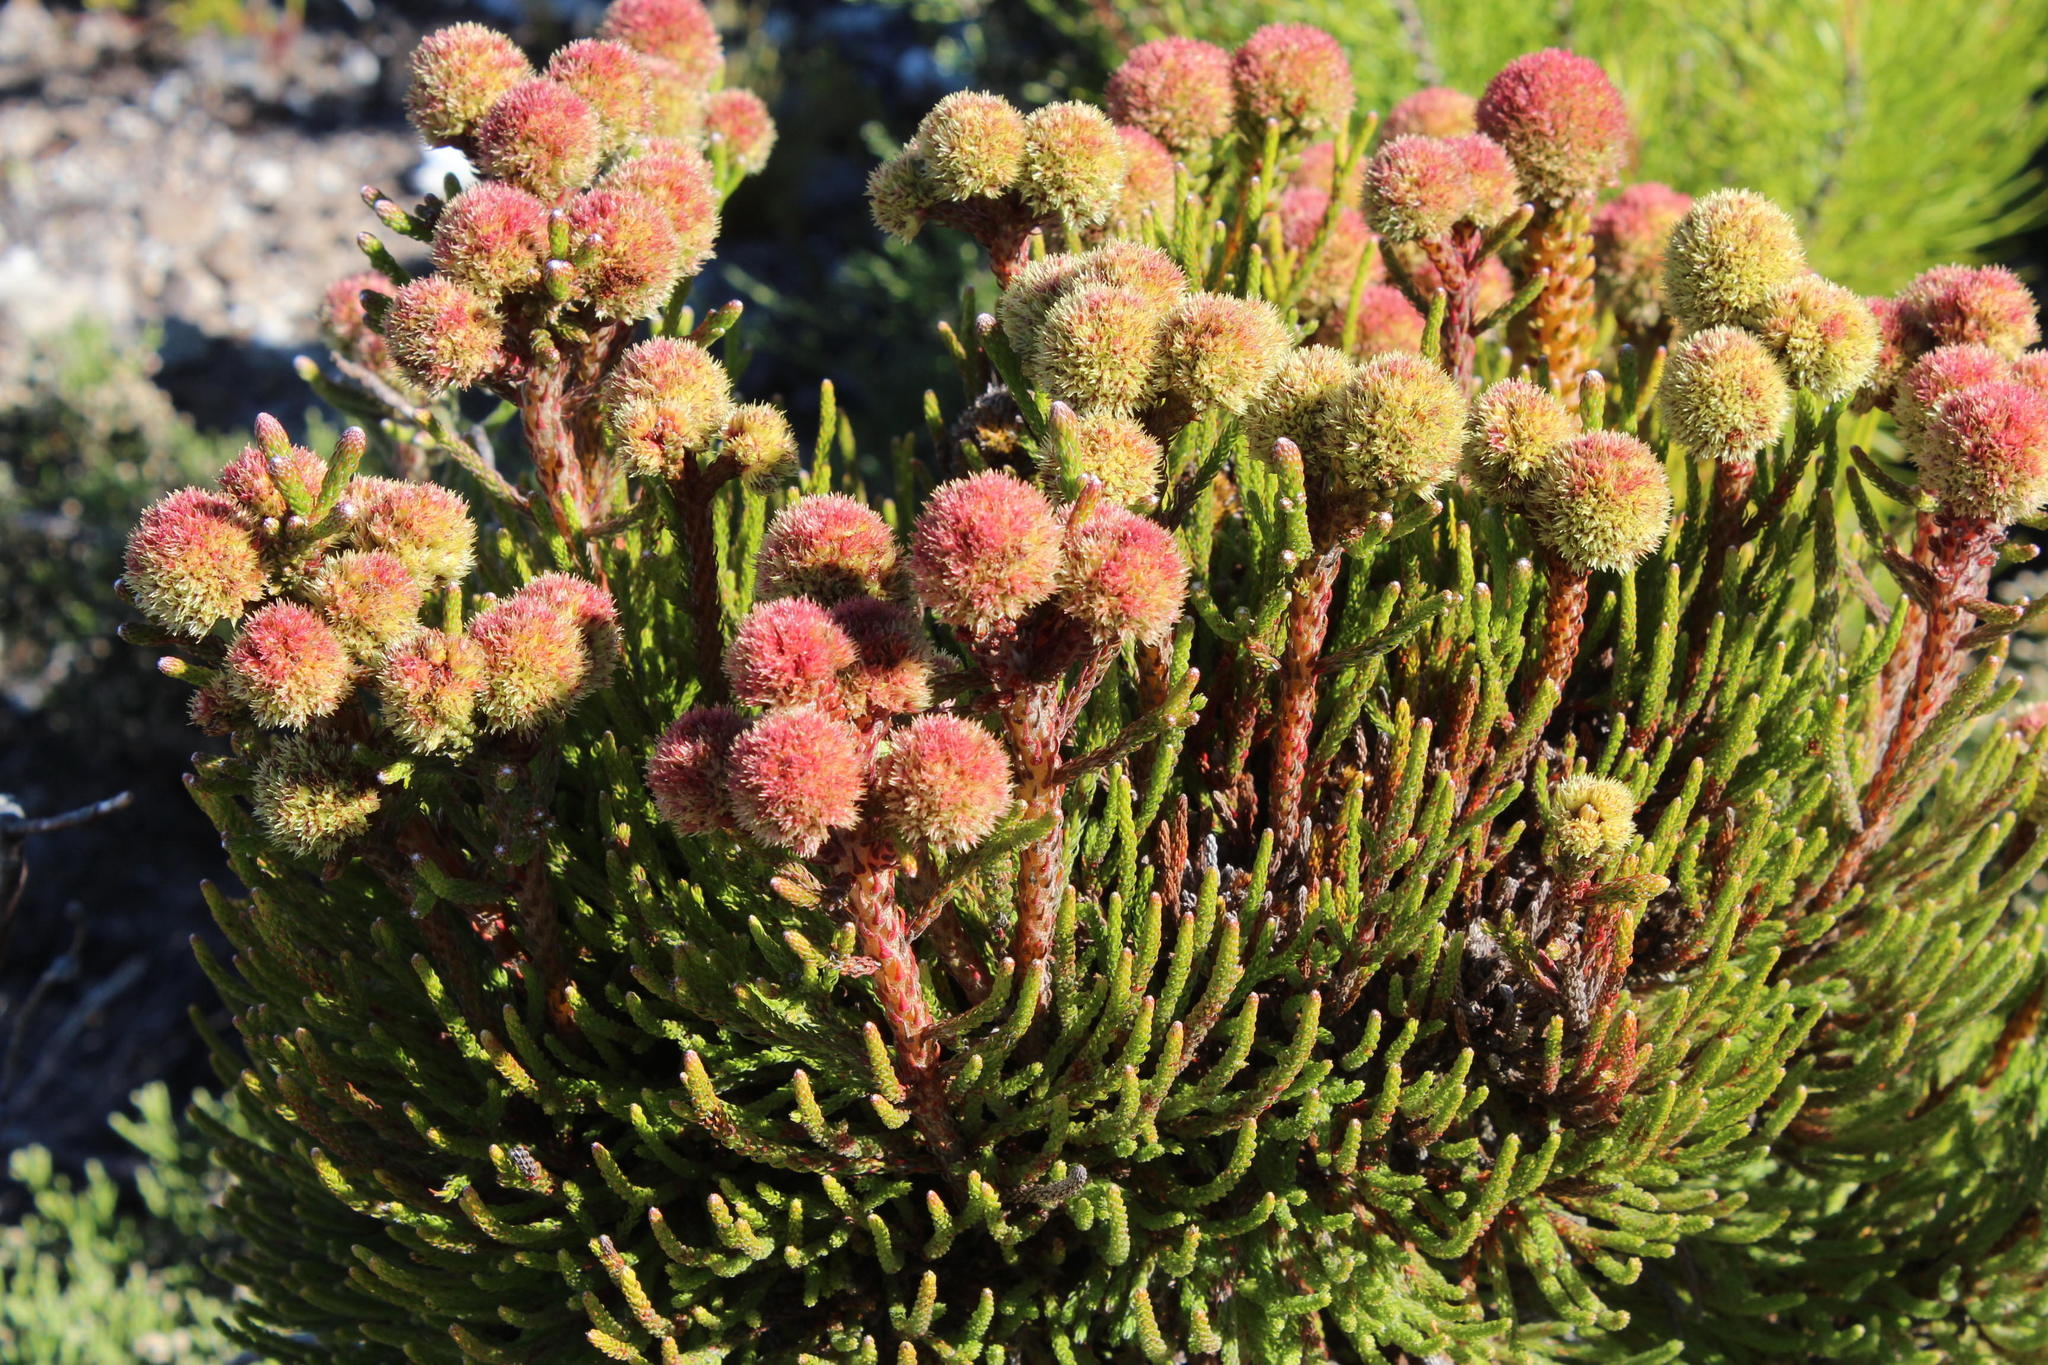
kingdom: Plantae
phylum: Tracheophyta
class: Magnoliopsida
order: Bruniales
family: Bruniaceae
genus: Brunia
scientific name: Brunia fragarioides
